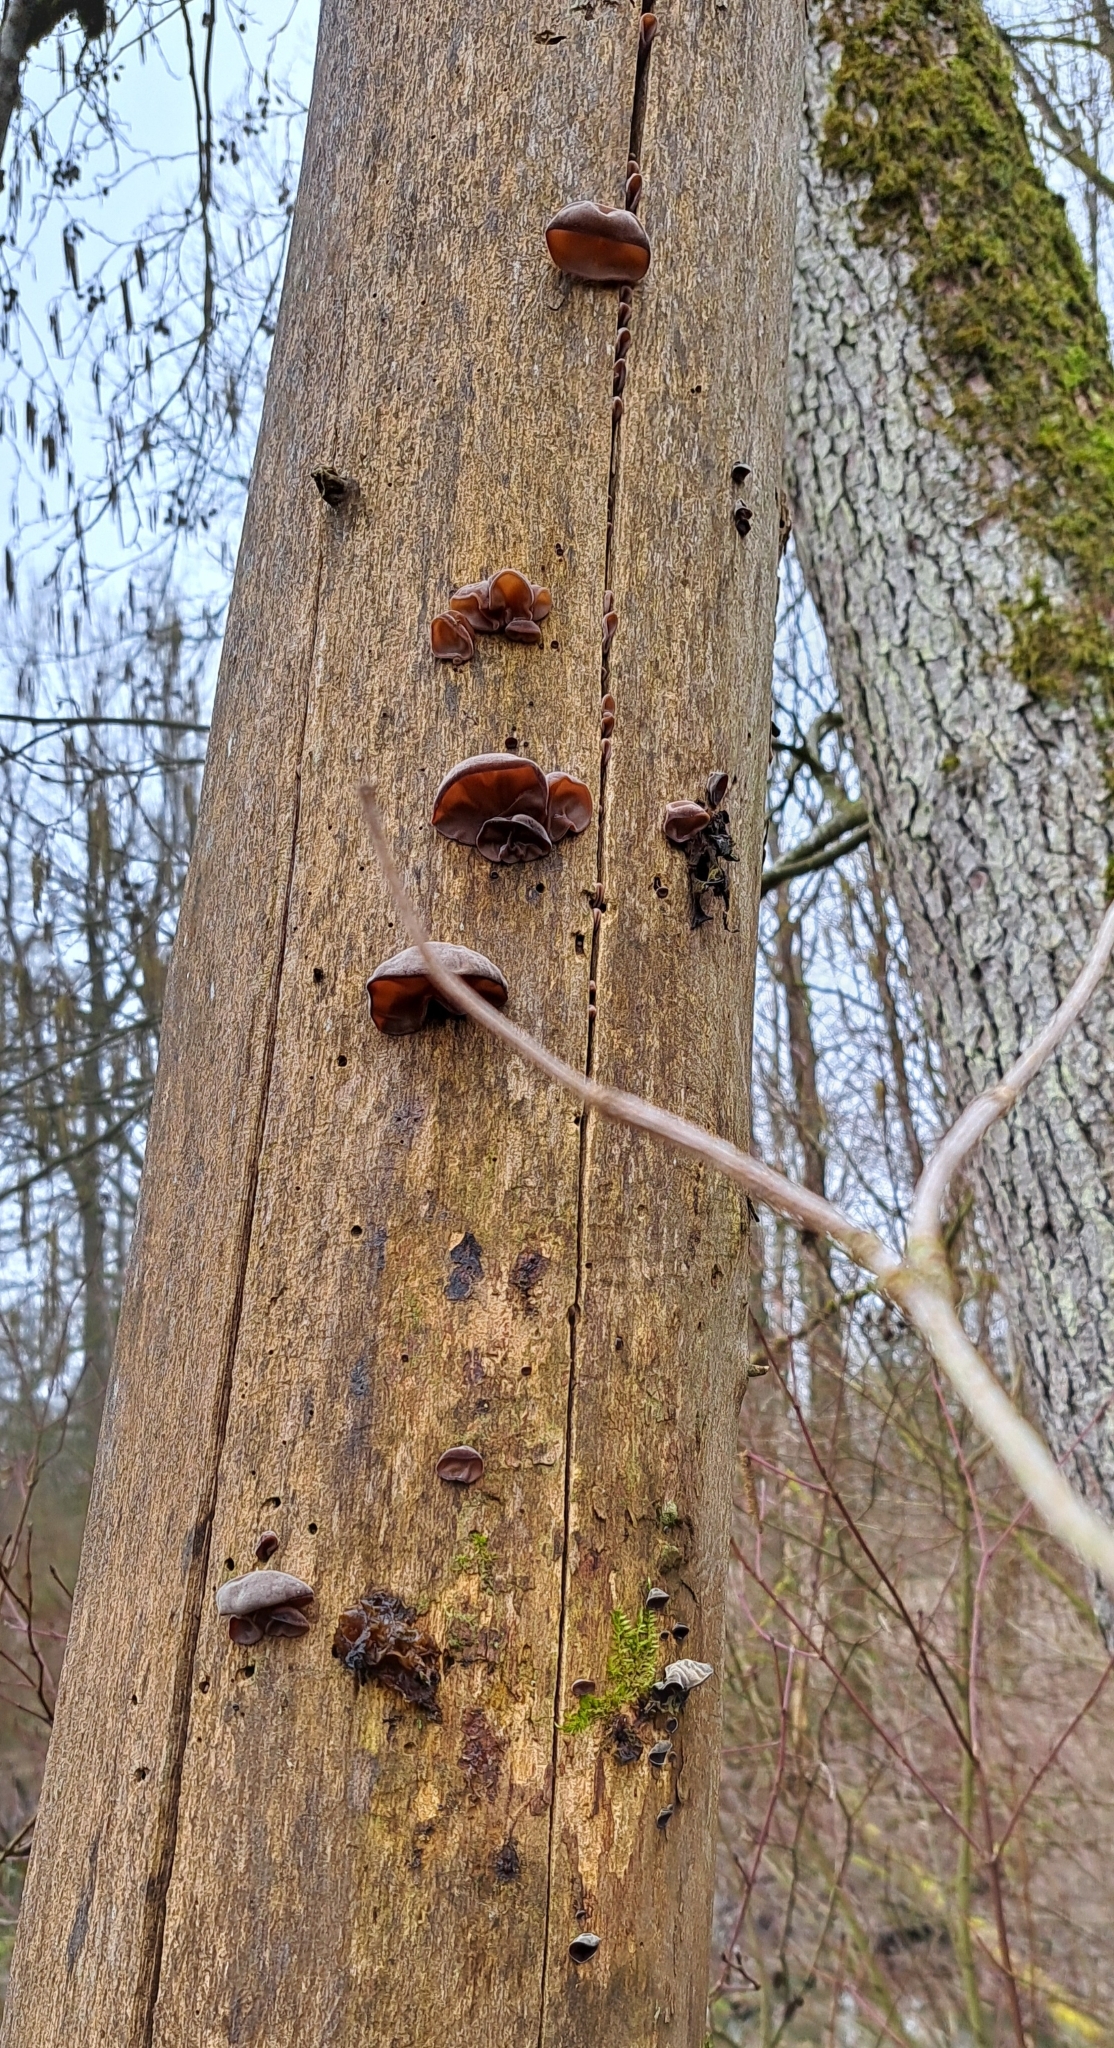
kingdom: Fungi
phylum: Basidiomycota
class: Agaricomycetes
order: Auriculariales
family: Auriculariaceae
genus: Auricularia
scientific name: Auricularia auricula-judae
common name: Jelly ear
